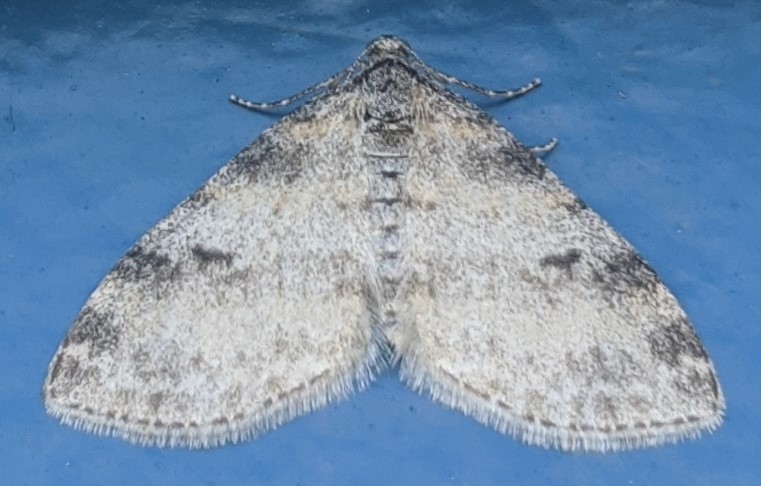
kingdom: Animalia
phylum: Arthropoda
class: Insecta
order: Lepidoptera
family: Geometridae
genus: Lobophora
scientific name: Lobophora nivigerata
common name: Powdered bigwing
